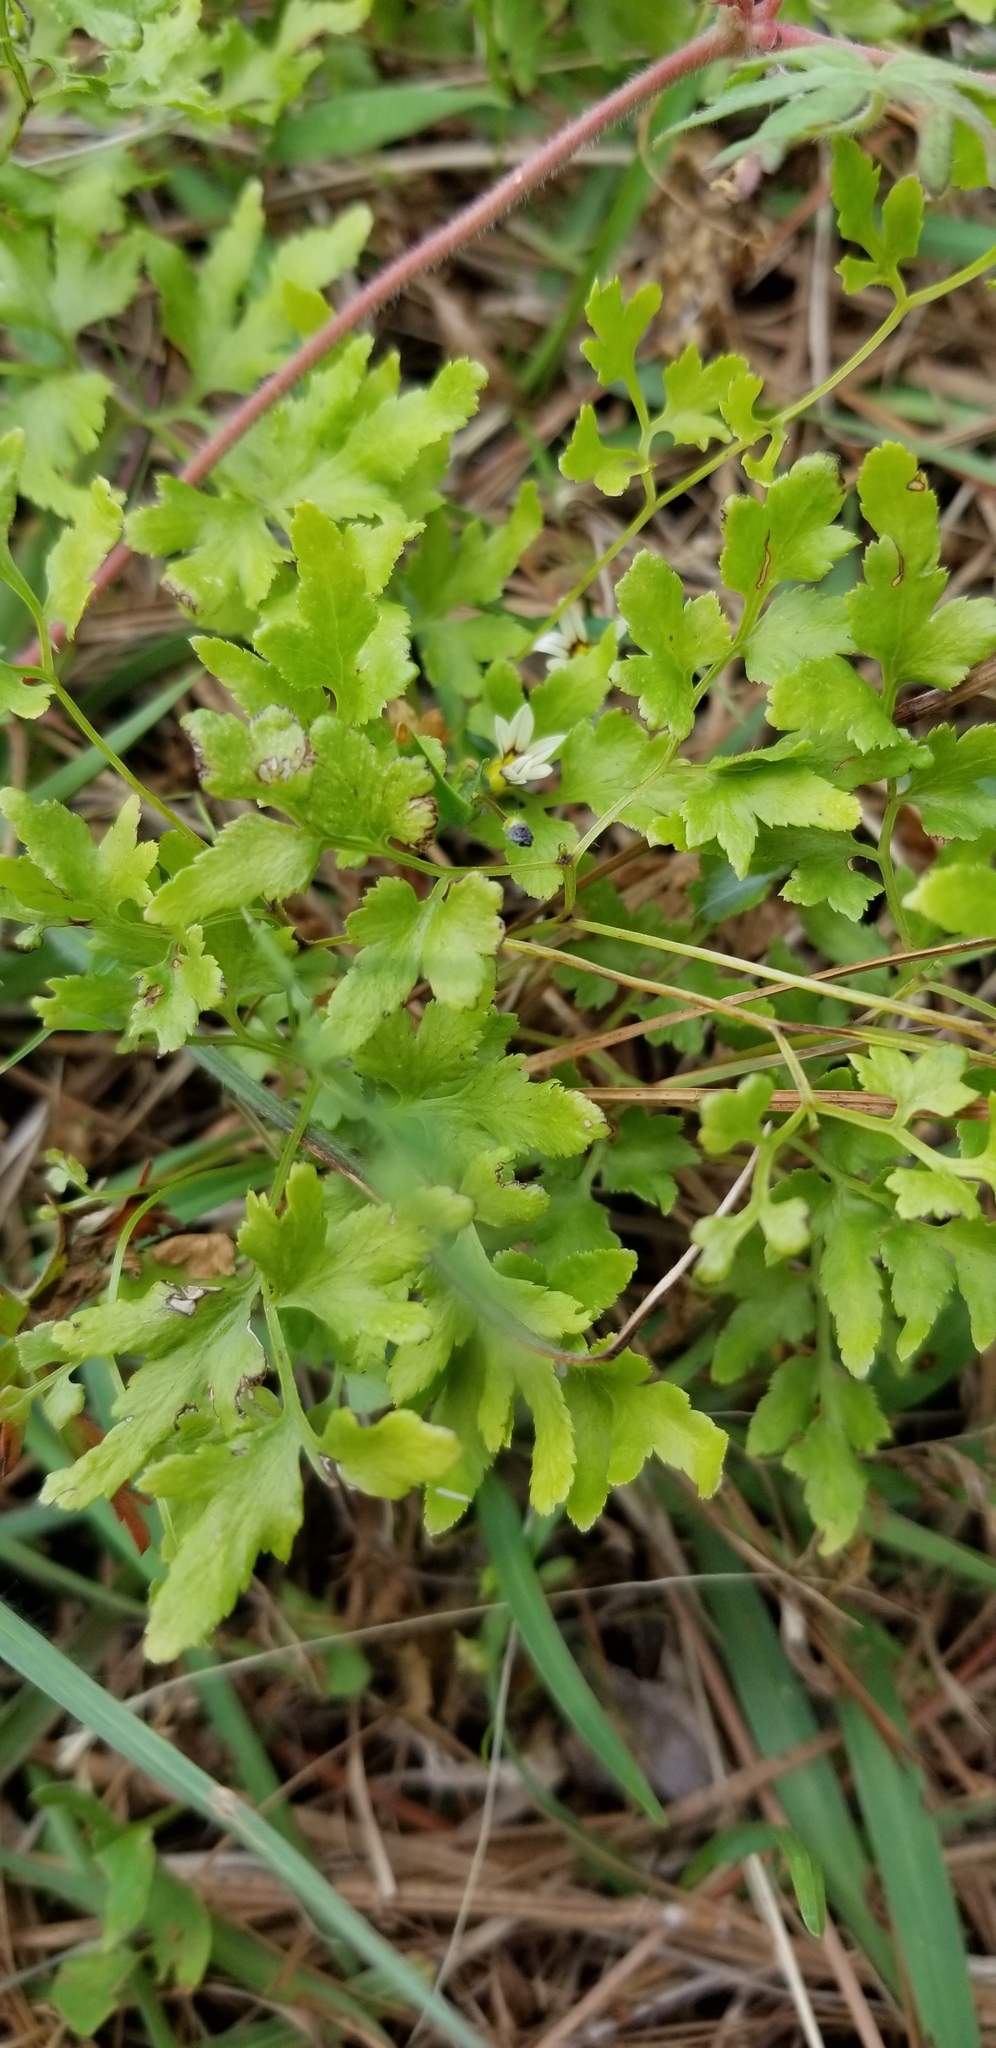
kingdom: Plantae
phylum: Tracheophyta
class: Polypodiopsida
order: Schizaeales
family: Lygodiaceae
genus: Lygodium
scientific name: Lygodium japonicum
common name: Japanese climbing fern
